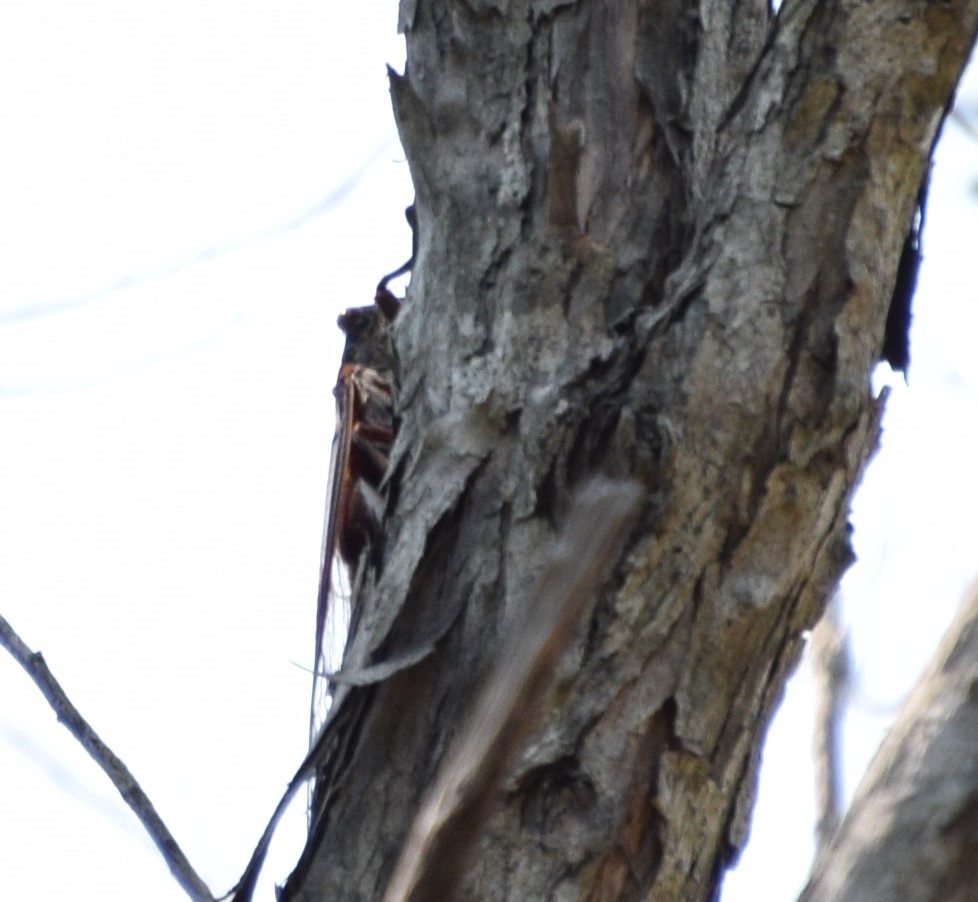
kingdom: Animalia
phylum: Arthropoda
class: Insecta
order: Hemiptera
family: Cicadidae
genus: Thopha
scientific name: Thopha saccata
